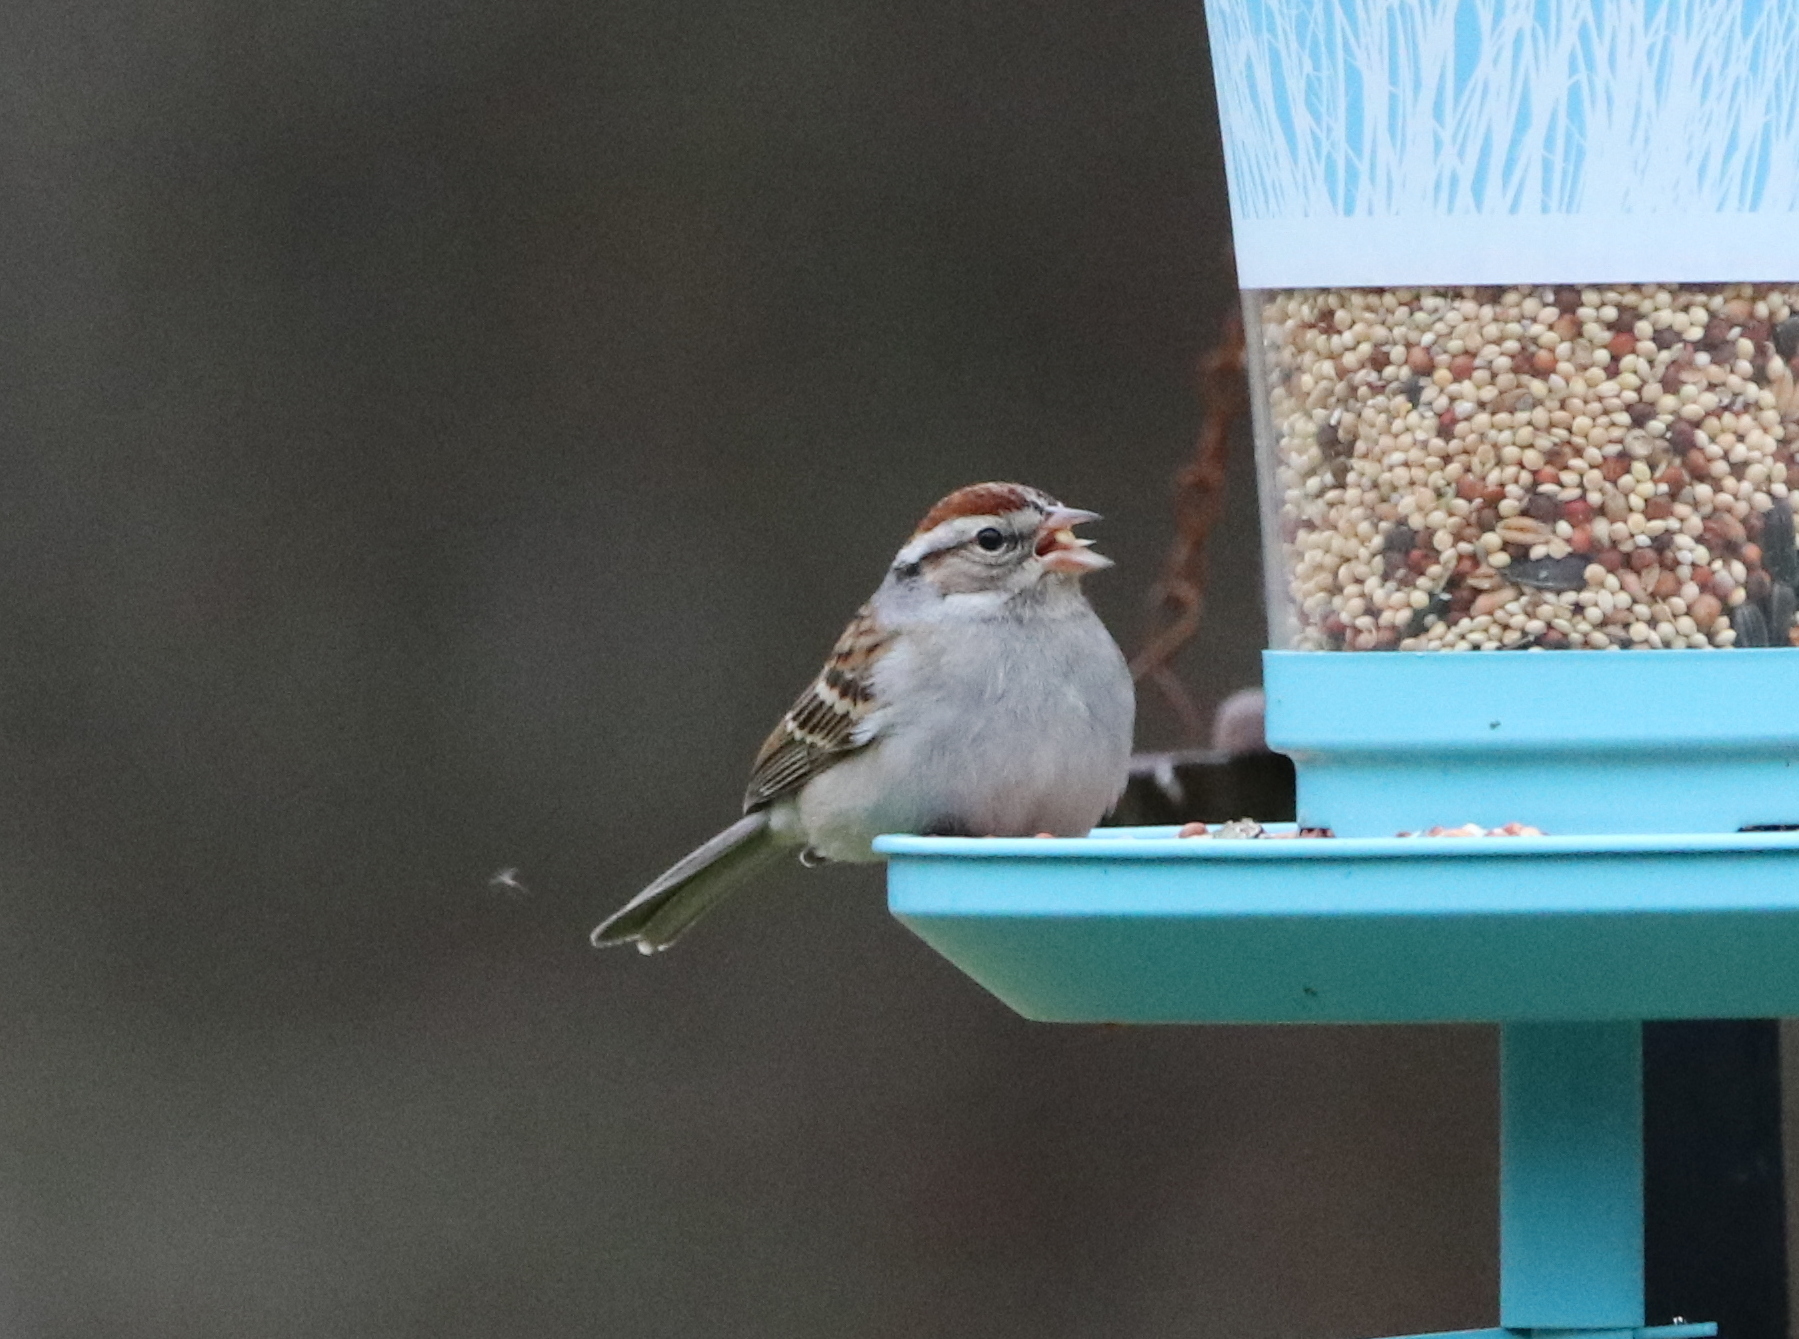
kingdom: Animalia
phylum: Chordata
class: Aves
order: Passeriformes
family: Passerellidae
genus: Spizella
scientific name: Spizella passerina
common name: Chipping sparrow
